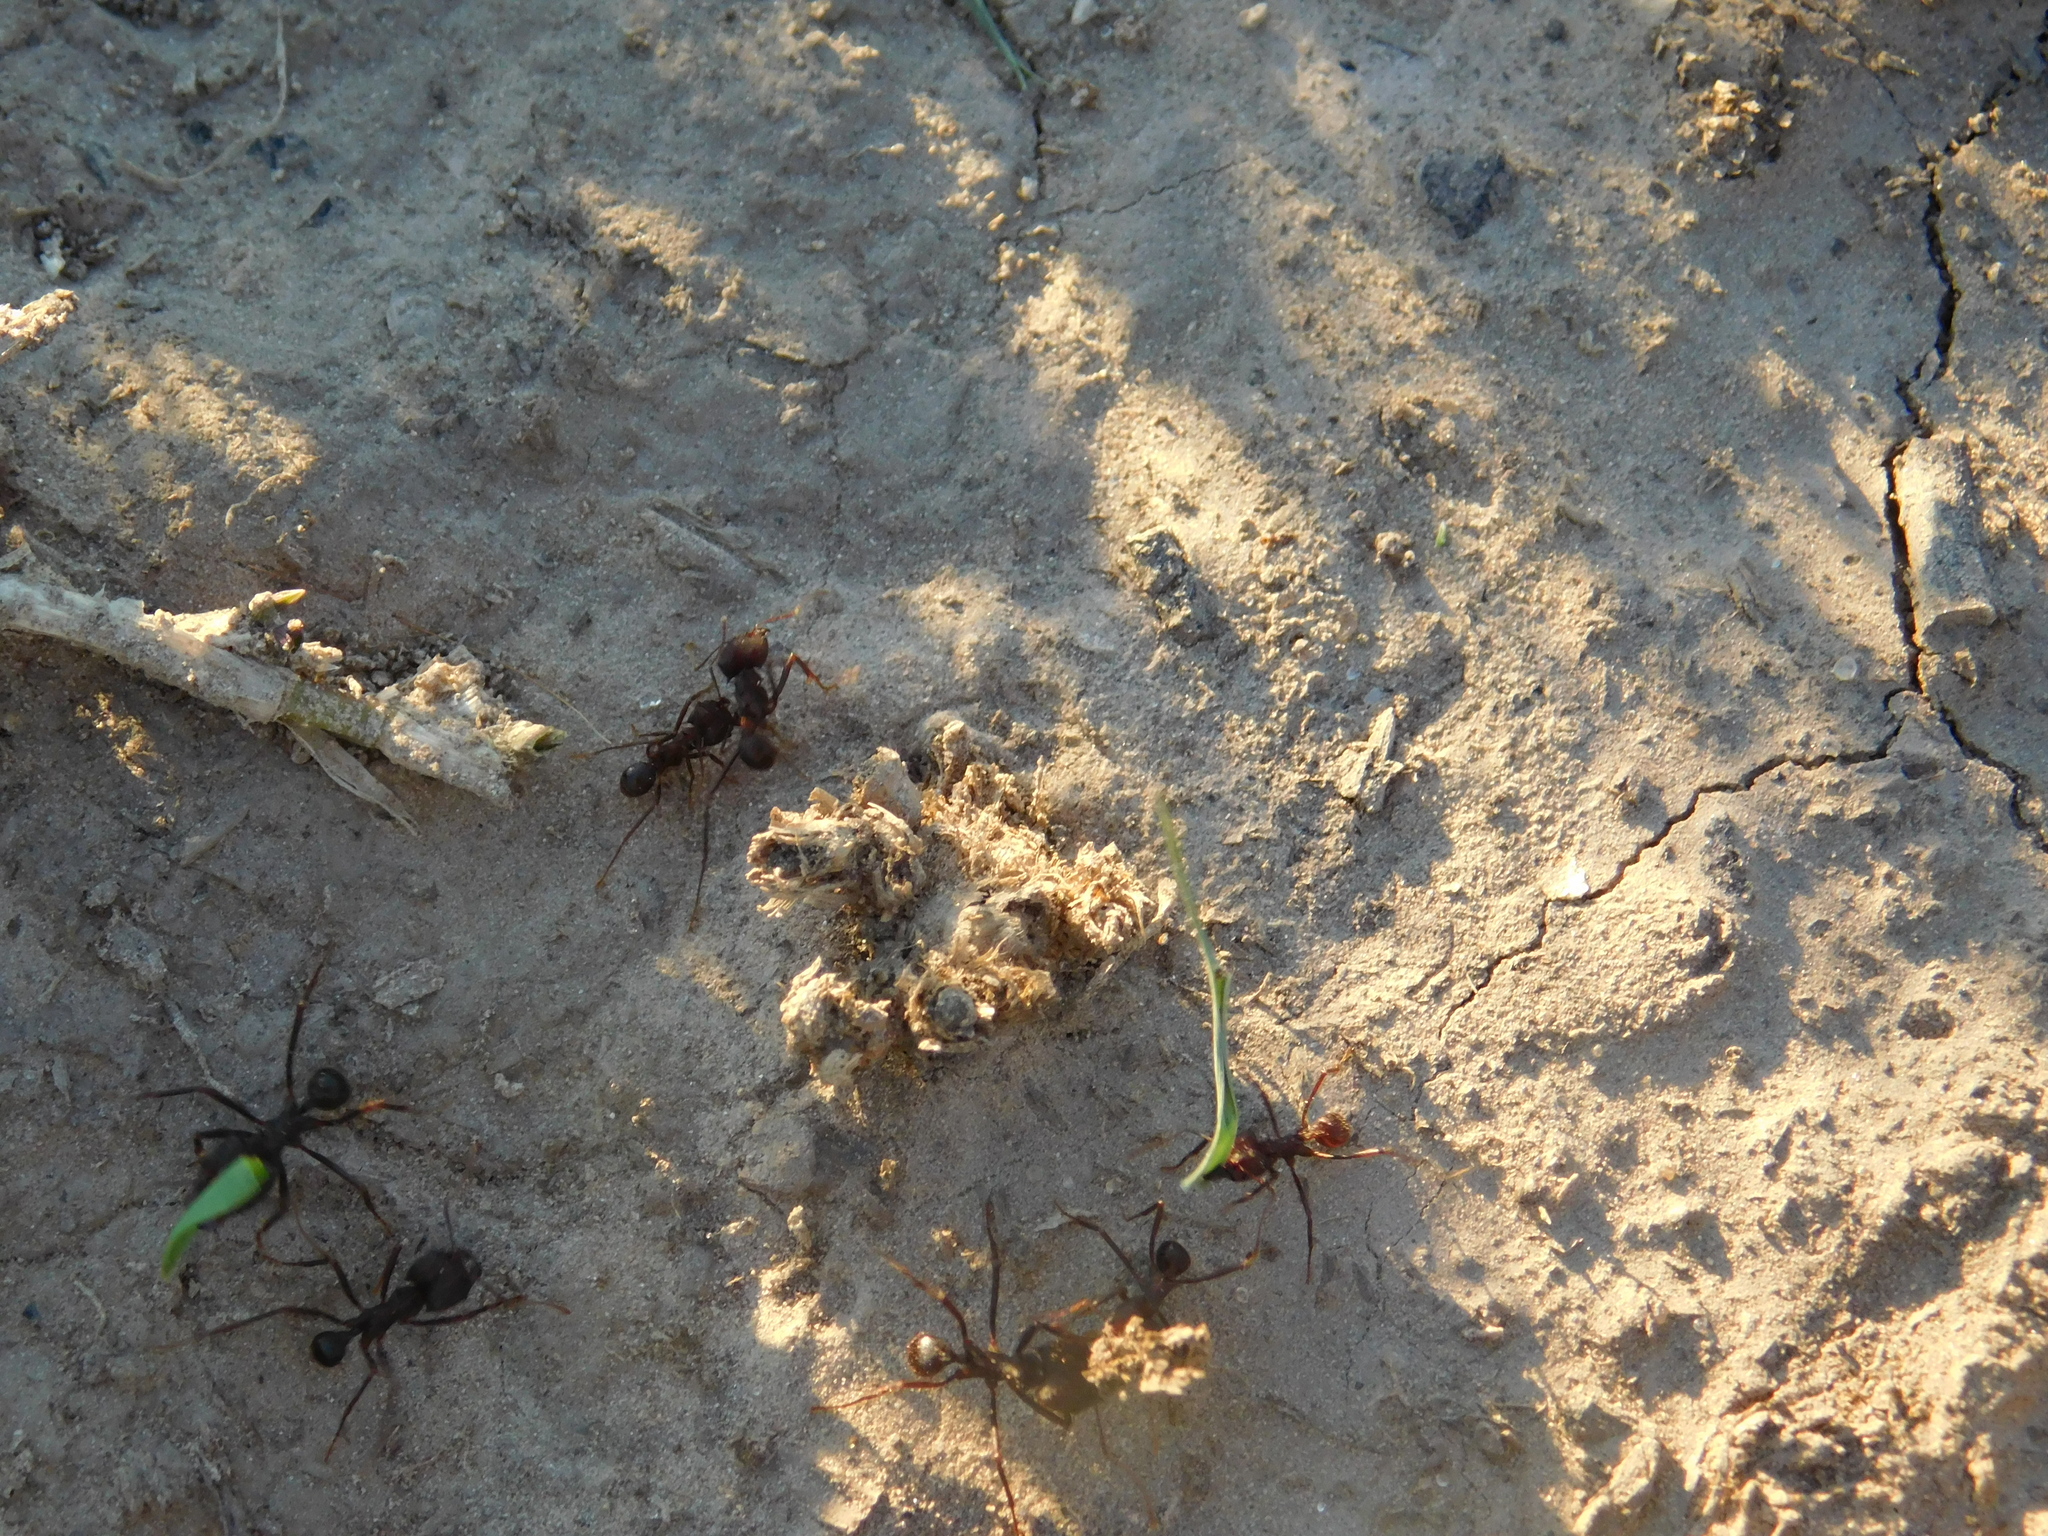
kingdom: Animalia
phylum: Arthropoda
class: Insecta
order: Hymenoptera
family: Formicidae
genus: Atta
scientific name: Atta vollenweideri
